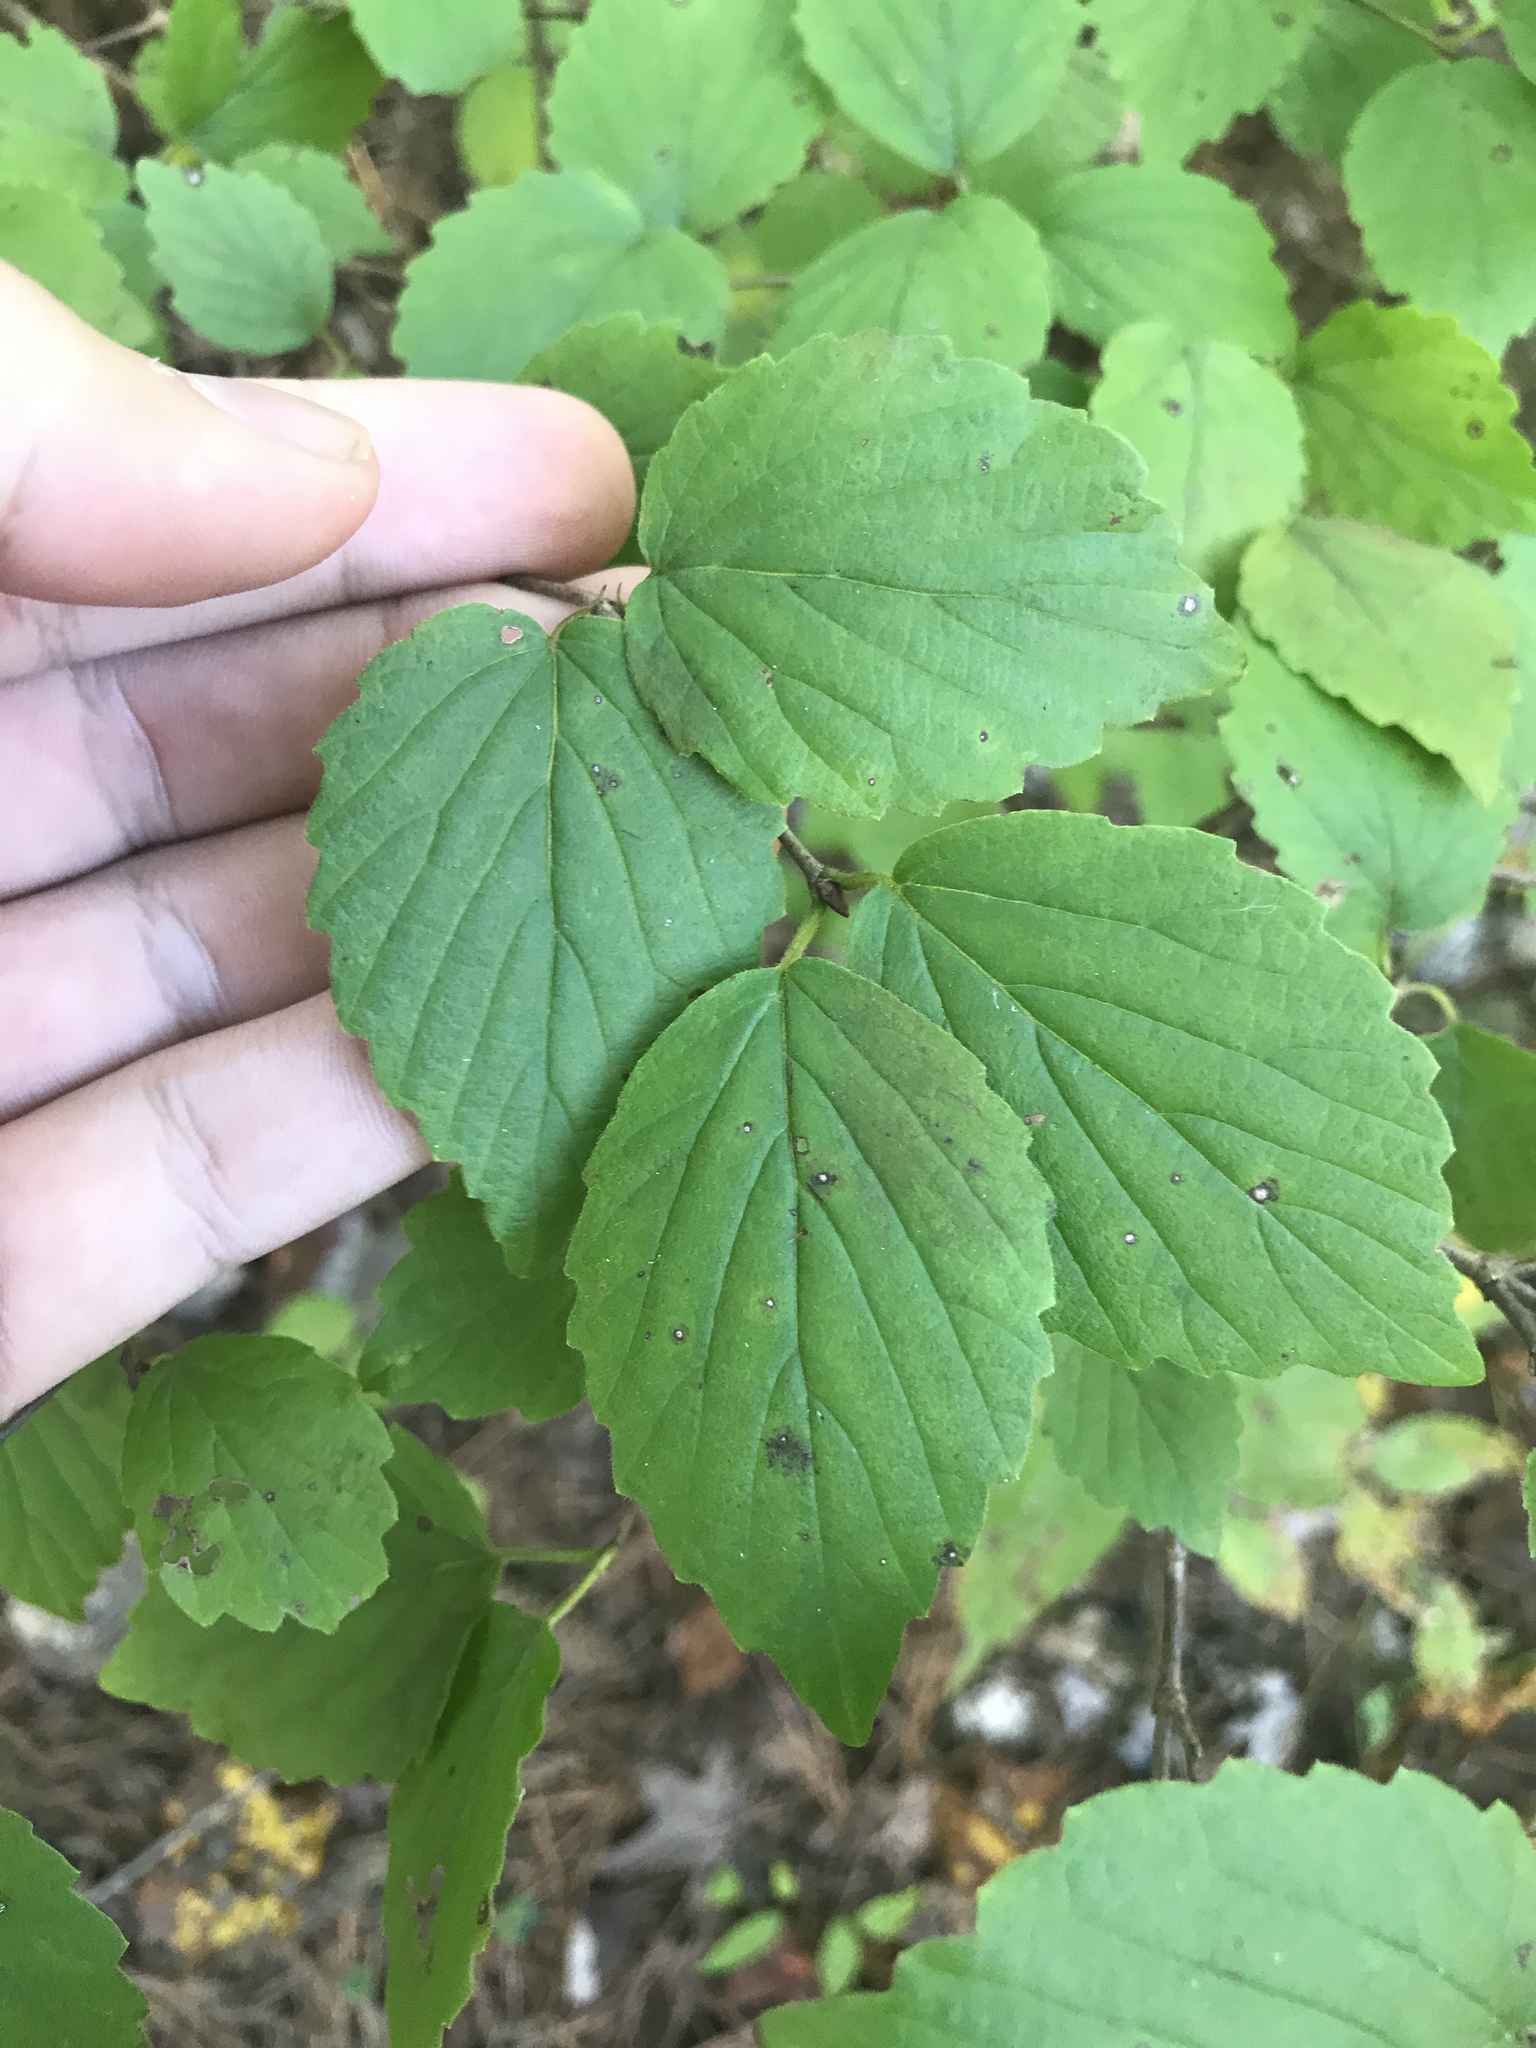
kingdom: Plantae
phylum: Tracheophyta
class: Magnoliopsida
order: Dipsacales
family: Viburnaceae
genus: Viburnum
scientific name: Viburnum rafinesqueanum
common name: Downy arrow-wood
